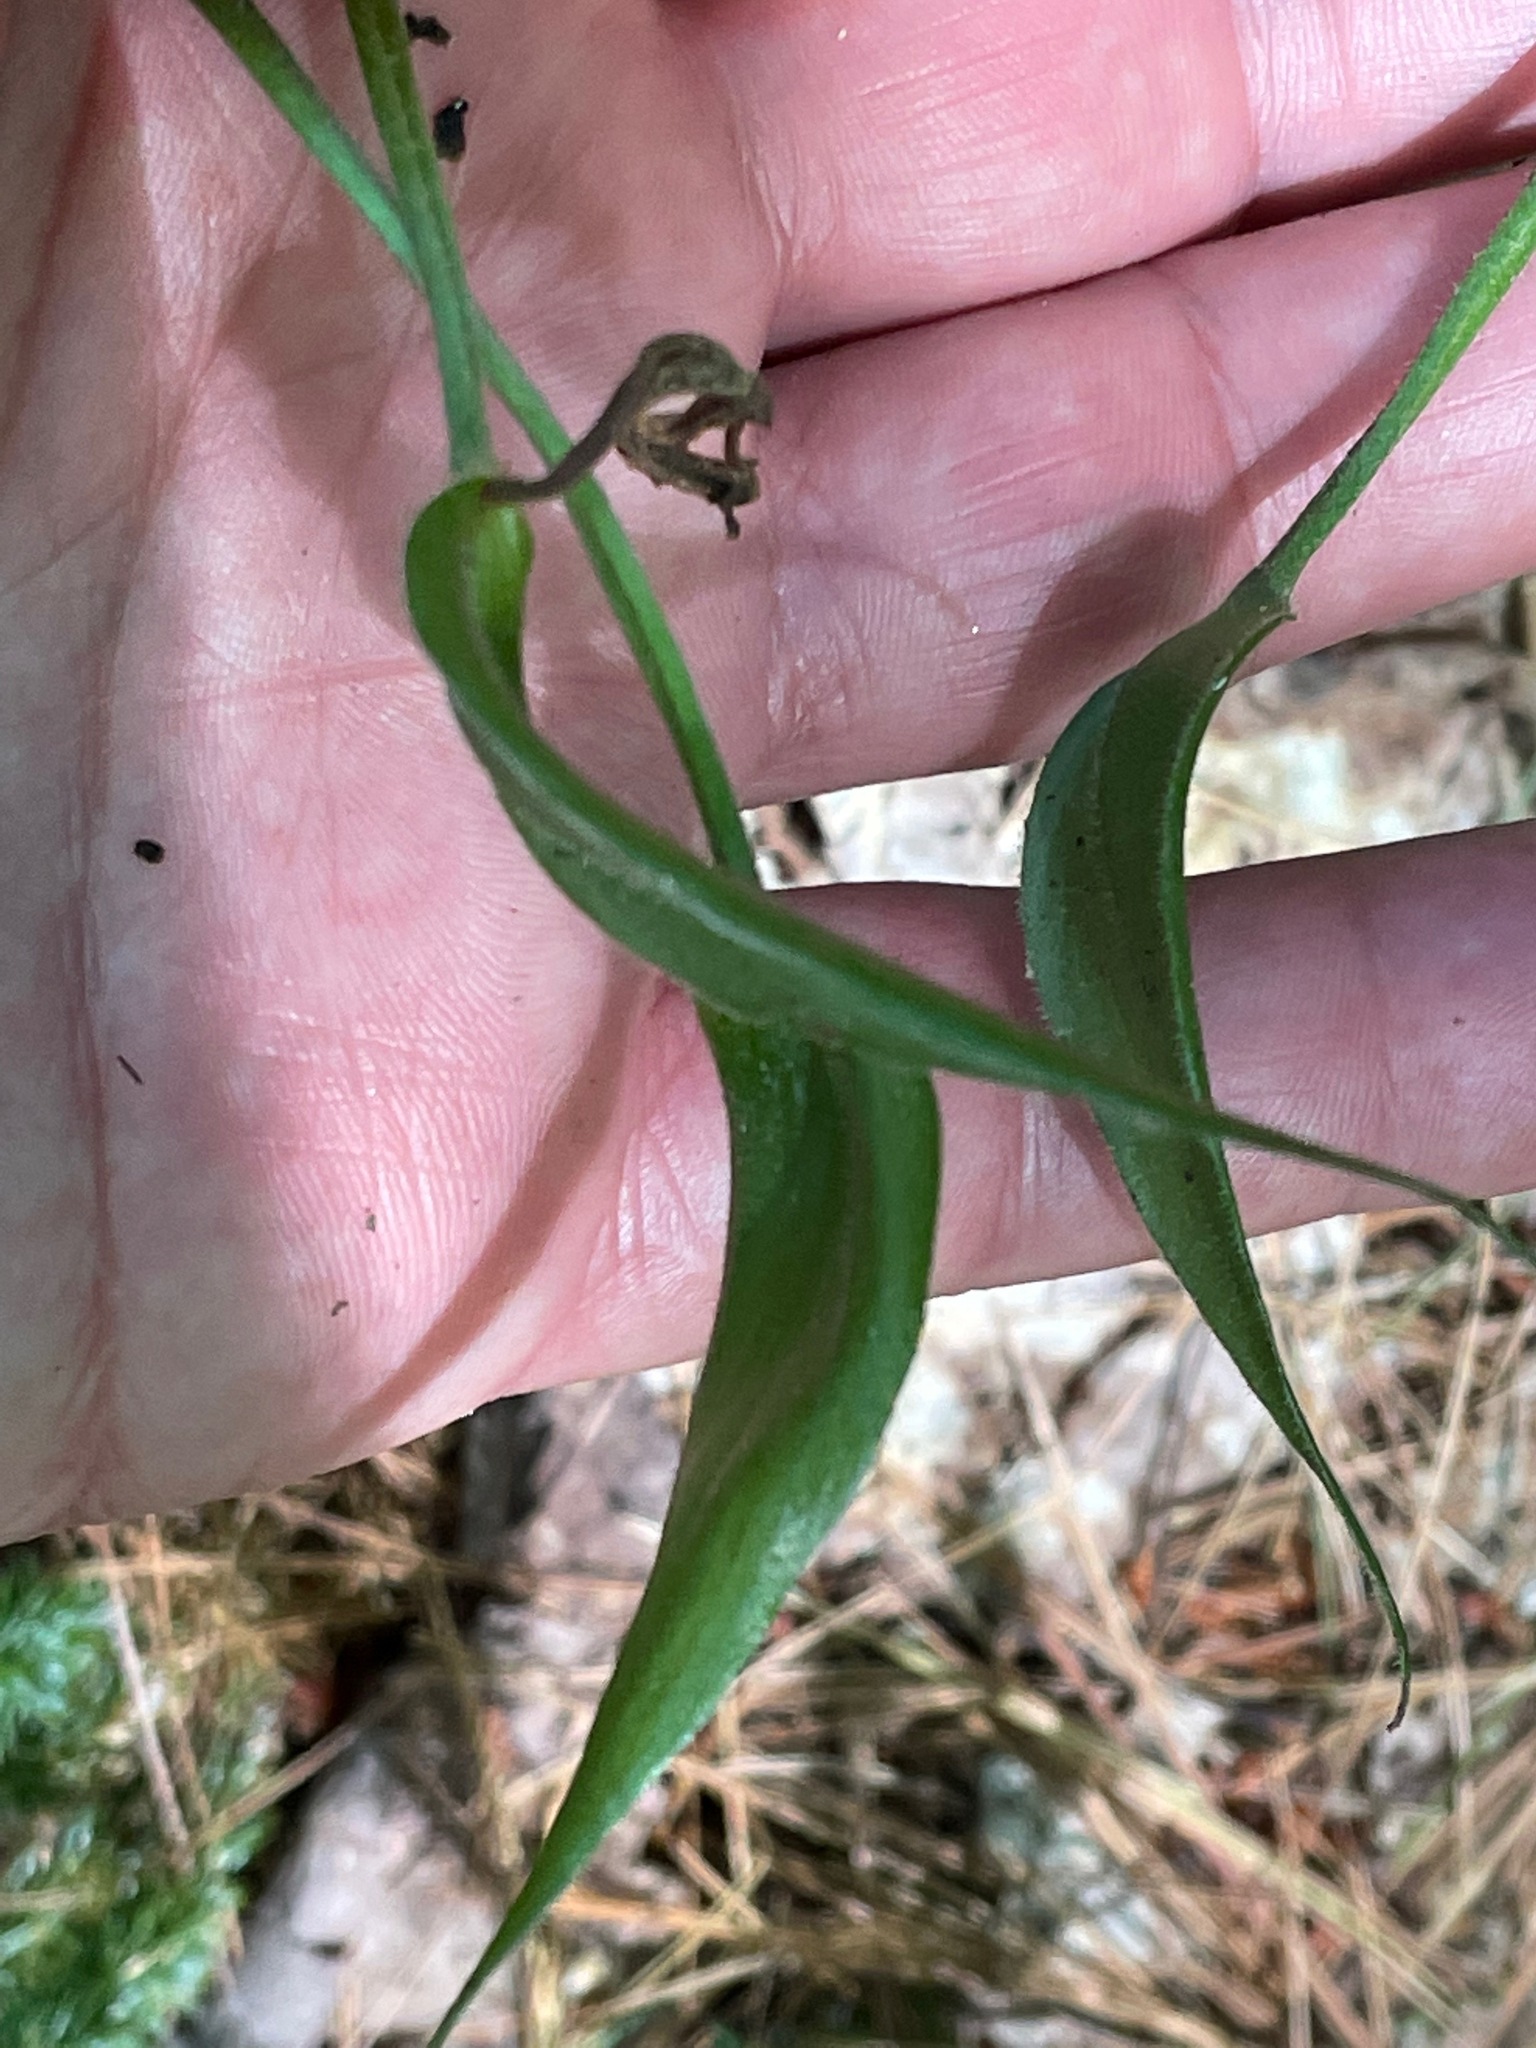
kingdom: Plantae
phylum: Tracheophyta
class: Liliopsida
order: Asparagales
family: Orchidaceae
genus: Cypripedium
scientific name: Cypripedium acaule
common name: Pink lady's-slipper
